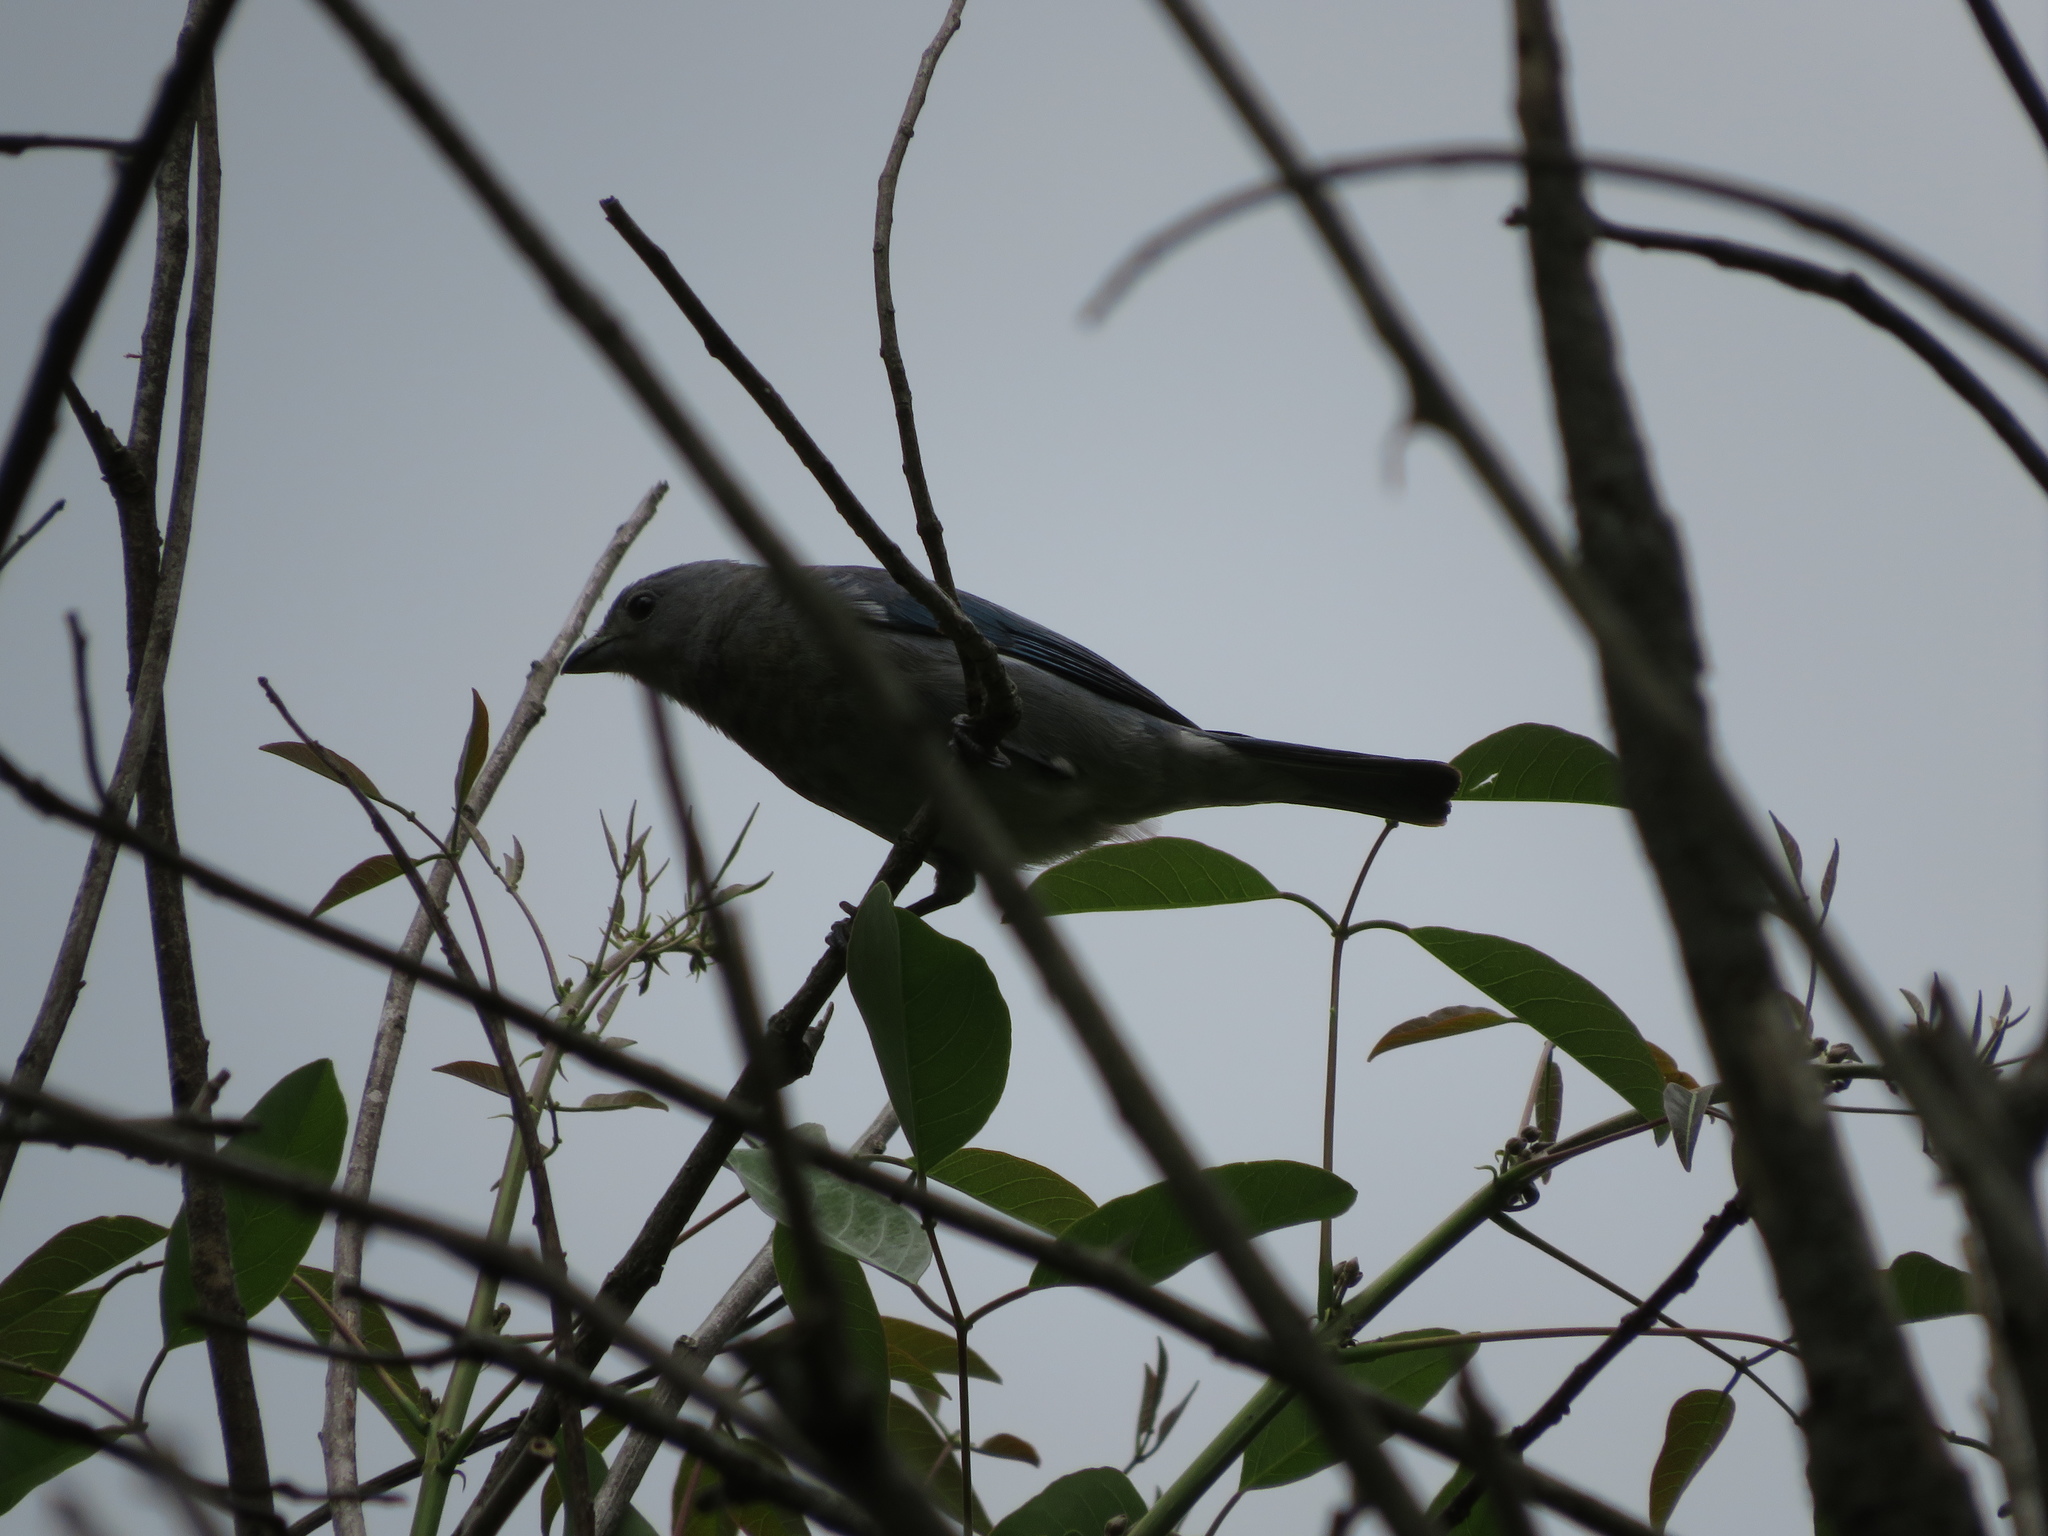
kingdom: Animalia
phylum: Chordata
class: Aves
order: Passeriformes
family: Thraupidae
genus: Thraupis
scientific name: Thraupis sayaca
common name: Sayaca tanager
